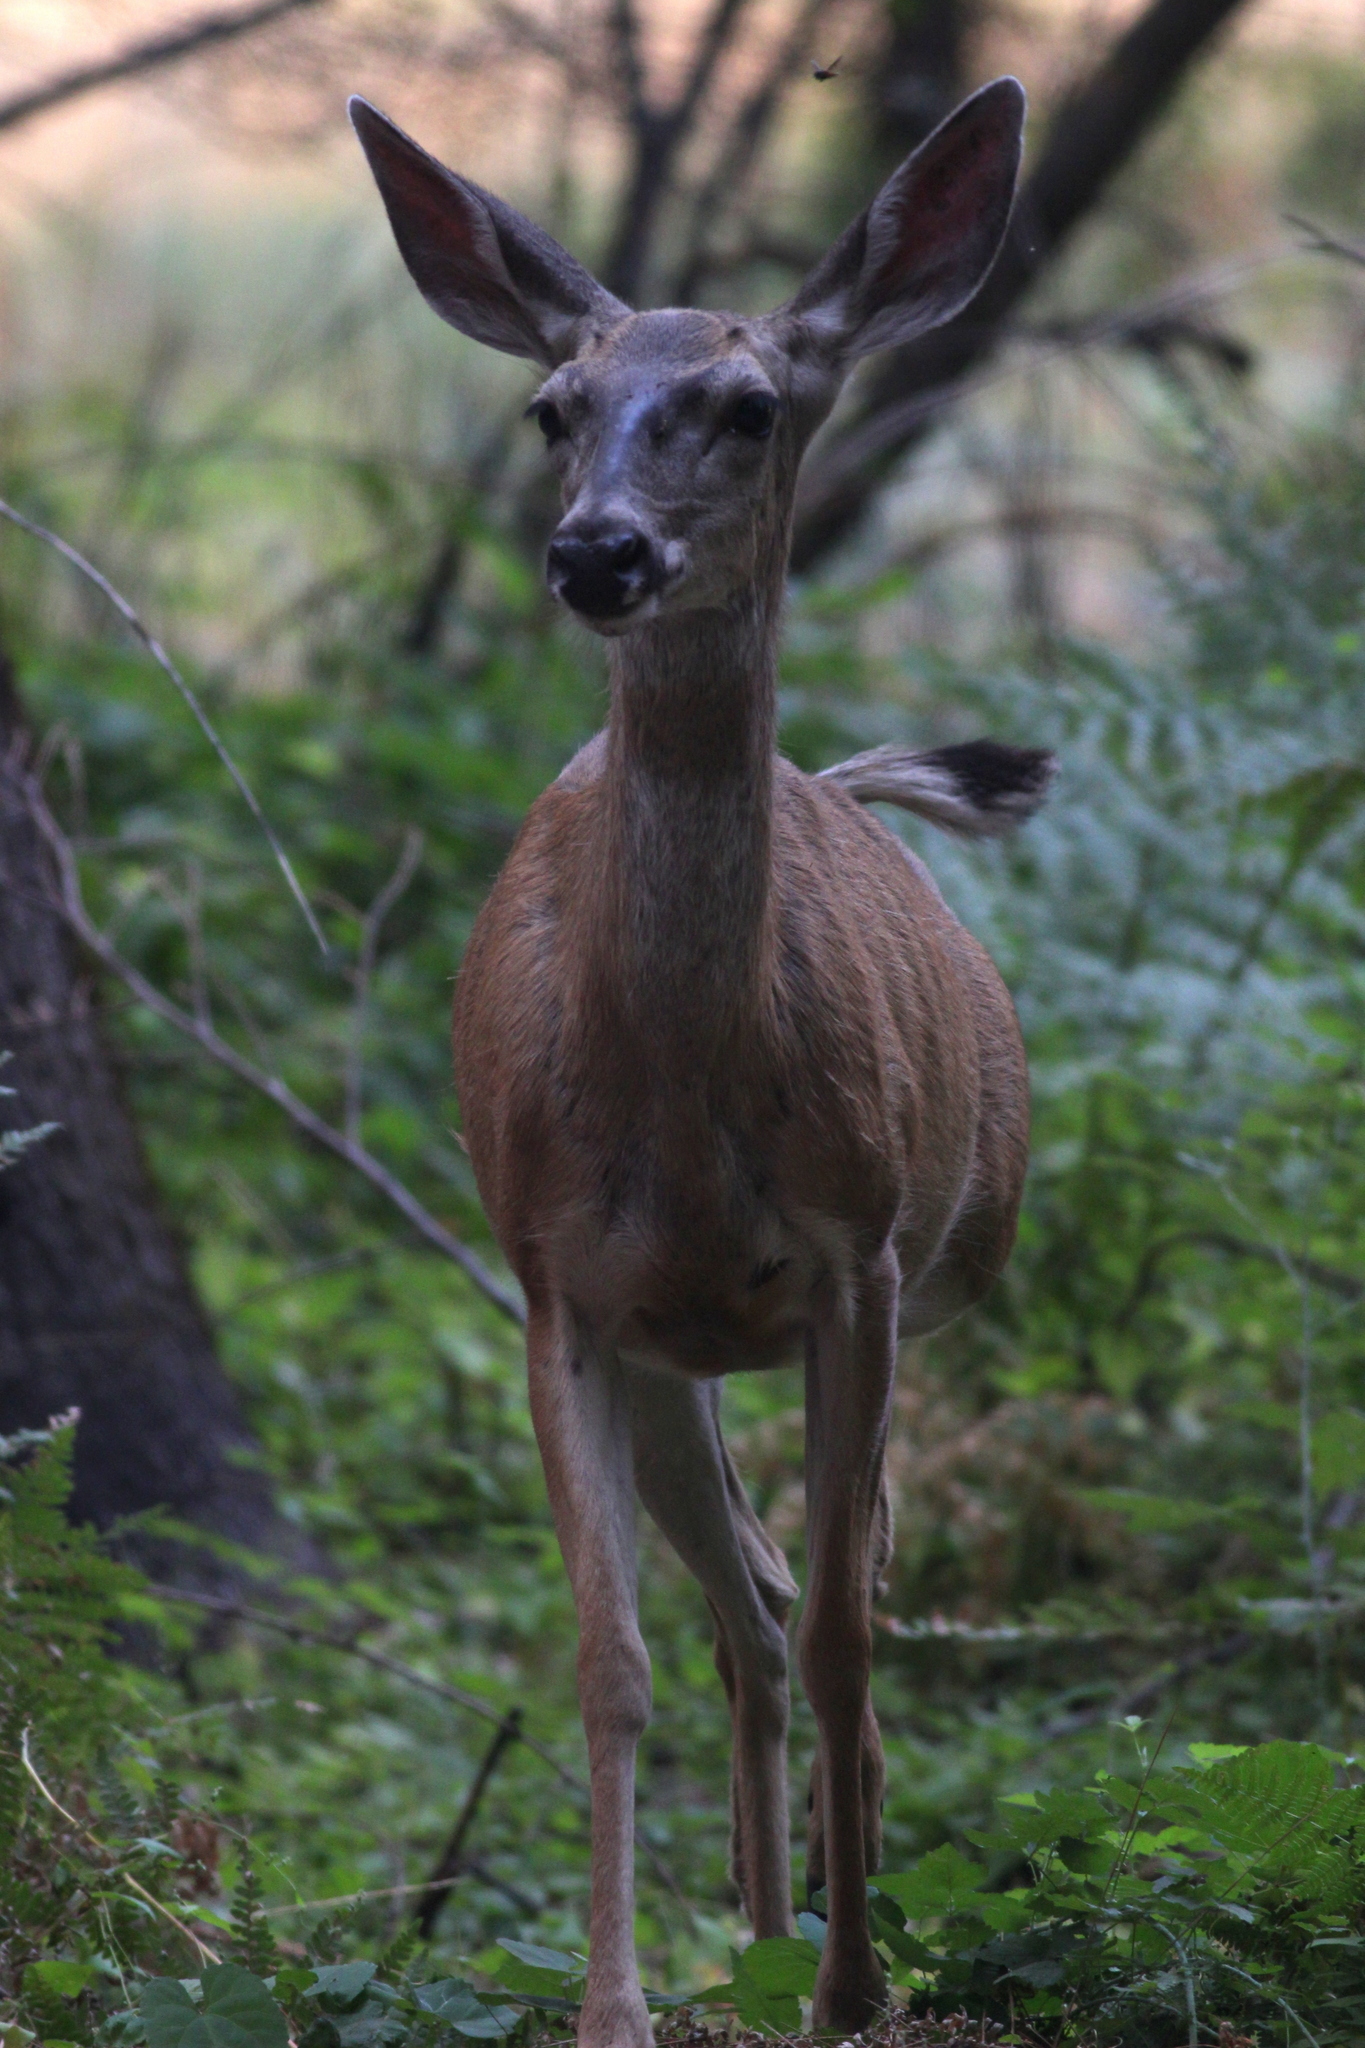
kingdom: Animalia
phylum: Chordata
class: Mammalia
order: Artiodactyla
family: Cervidae
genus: Odocoileus
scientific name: Odocoileus hemionus
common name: Mule deer
